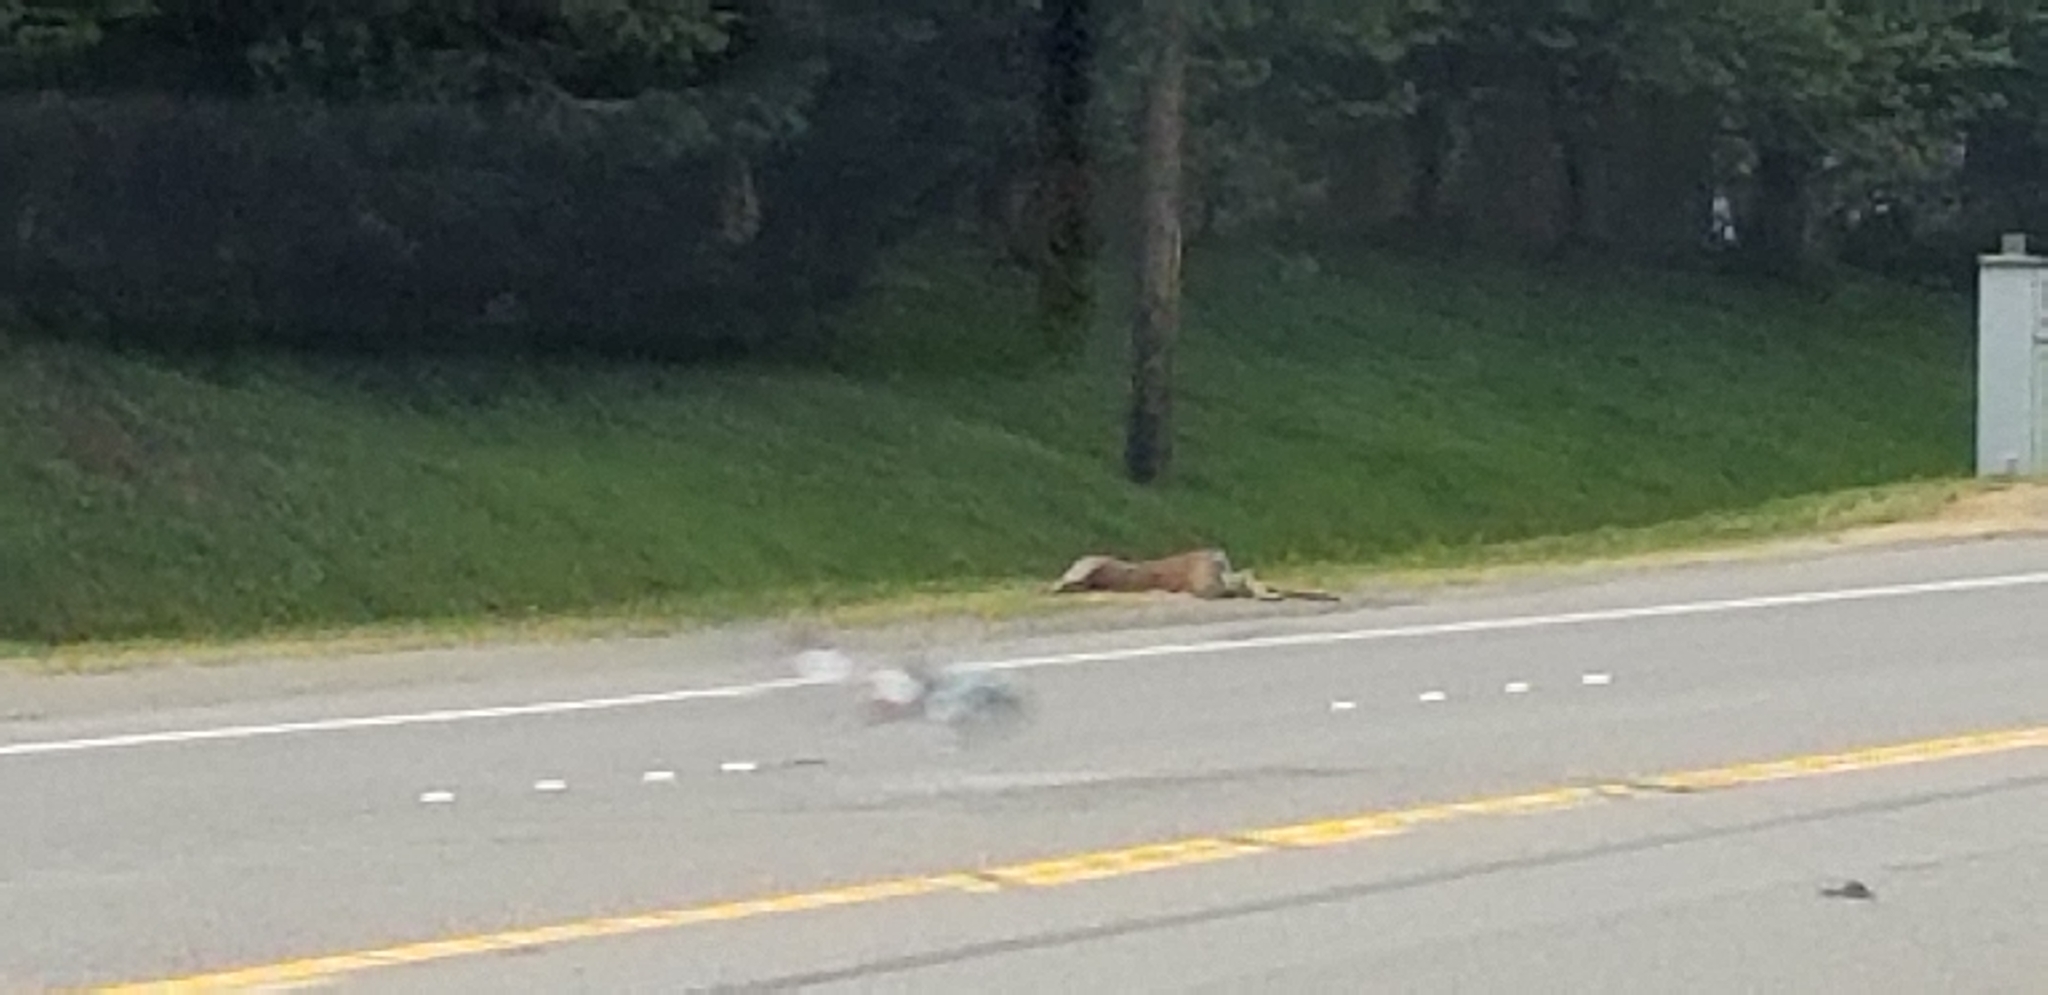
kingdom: Animalia
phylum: Chordata
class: Mammalia
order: Artiodactyla
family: Cervidae
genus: Odocoileus
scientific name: Odocoileus hemionus
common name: Mule deer
